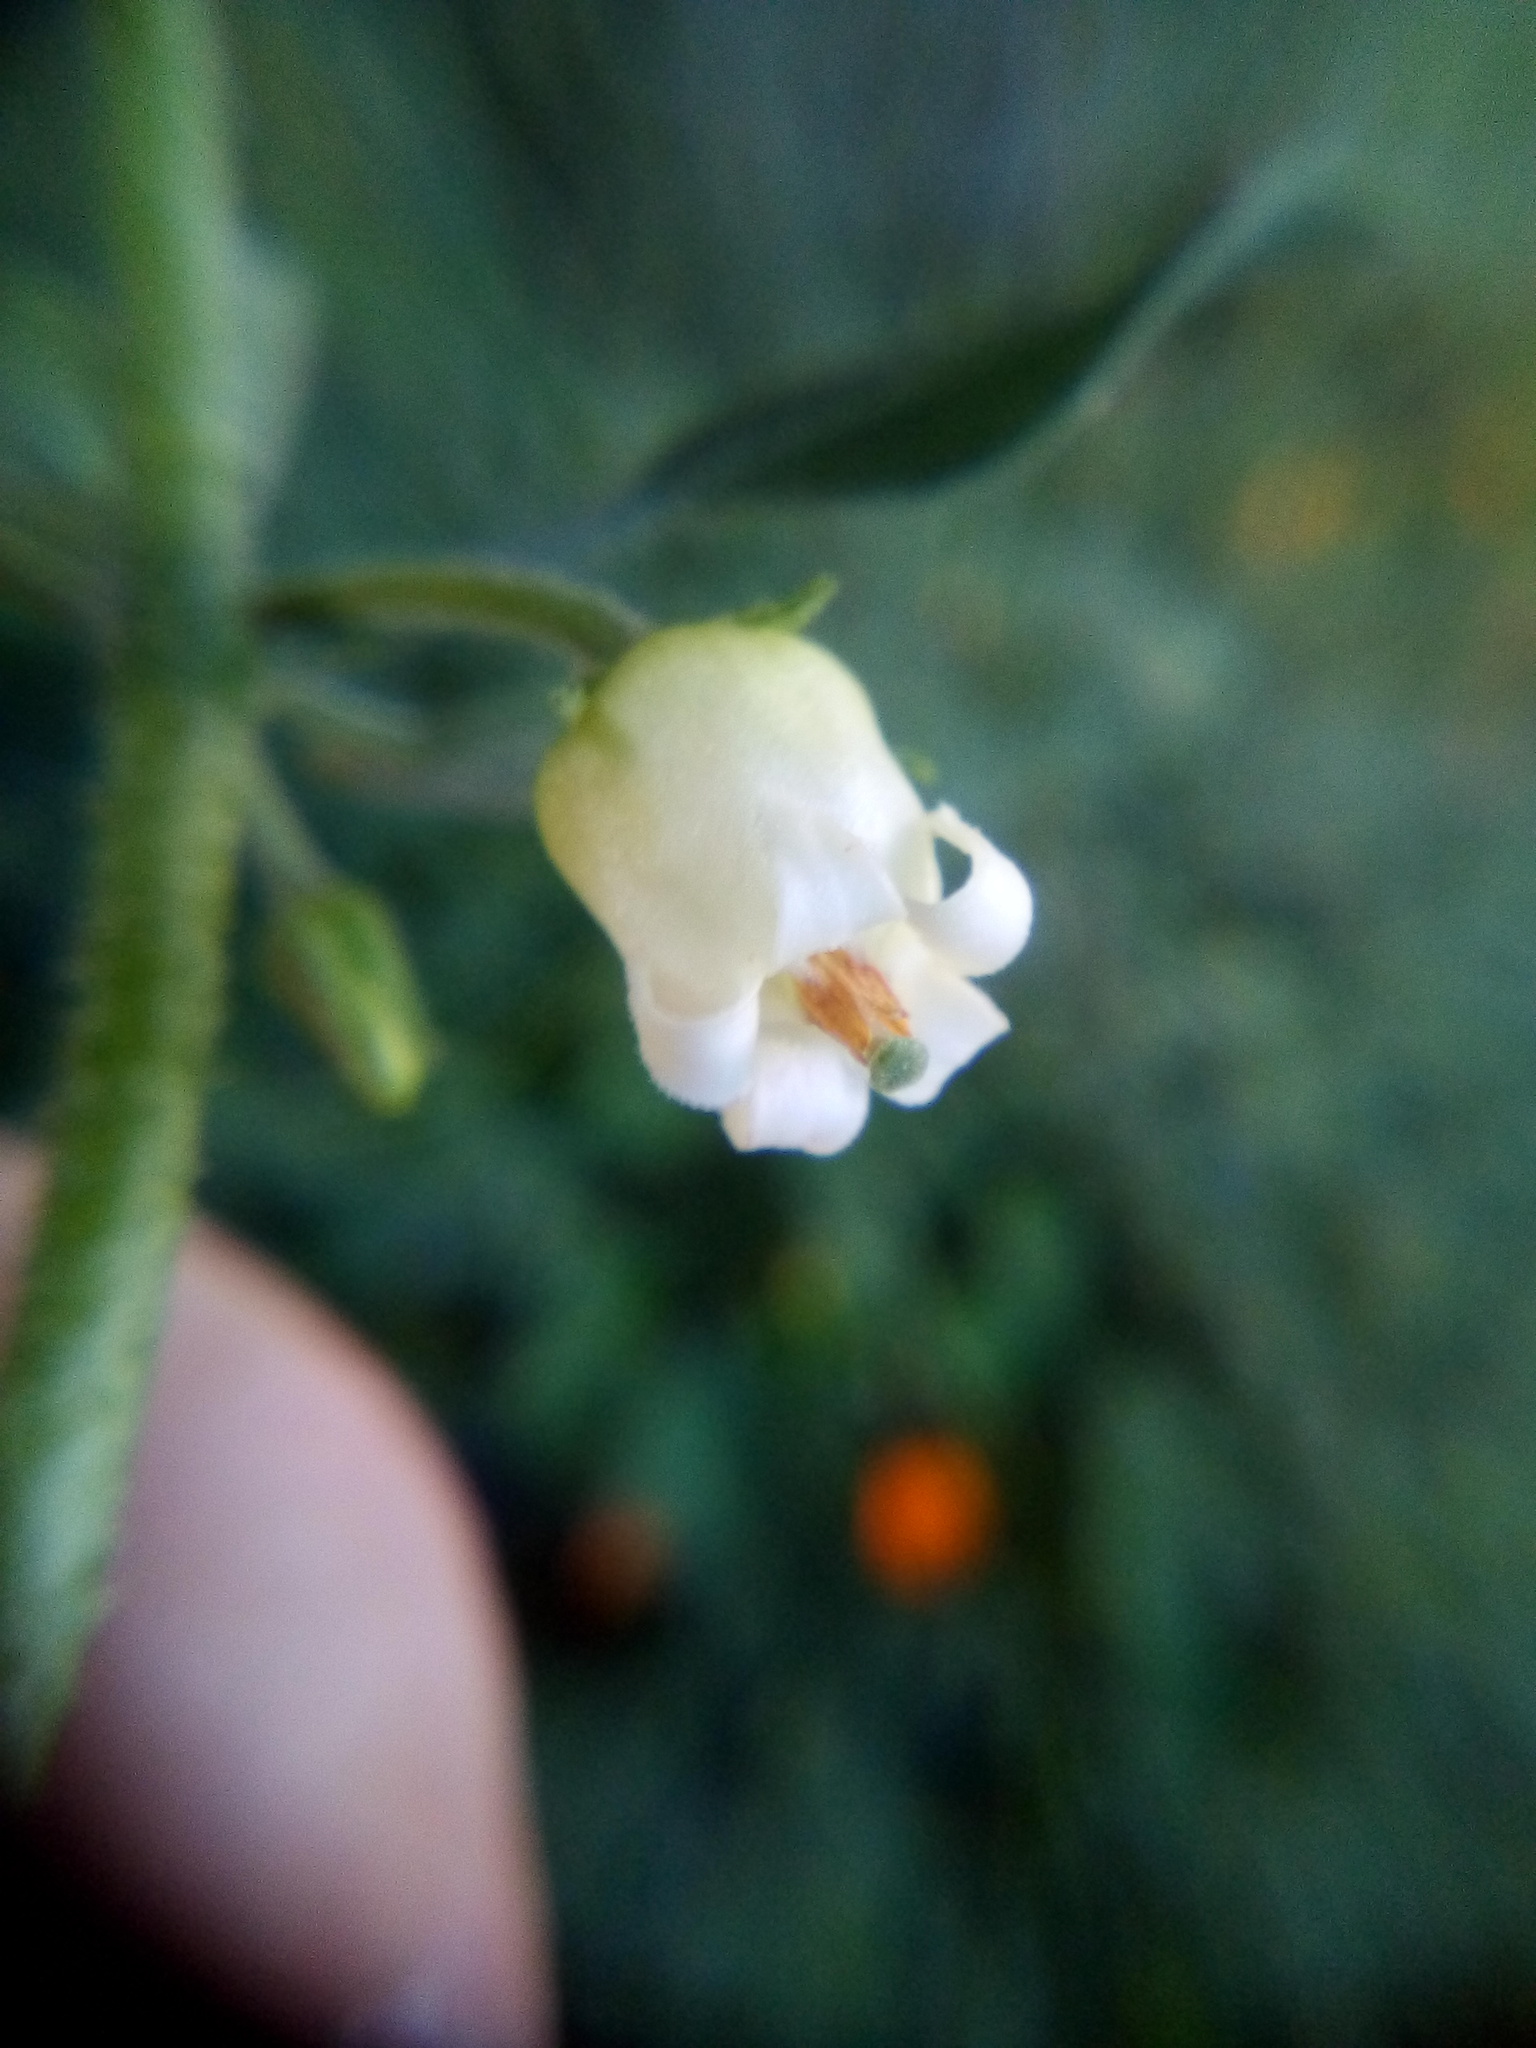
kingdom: Plantae
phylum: Tracheophyta
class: Magnoliopsida
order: Solanales
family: Solanaceae
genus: Salpichroa
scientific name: Salpichroa origanifolia
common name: Lily-of-the-valley-vine
